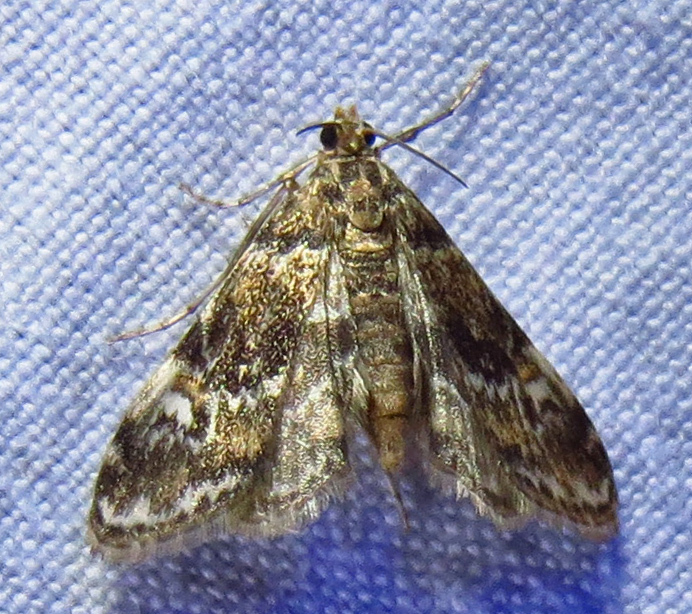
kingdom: Animalia
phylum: Arthropoda
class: Insecta
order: Lepidoptera
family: Crambidae
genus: Elophila
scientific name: Elophila obliteralis
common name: Waterlily leafcutter moth
